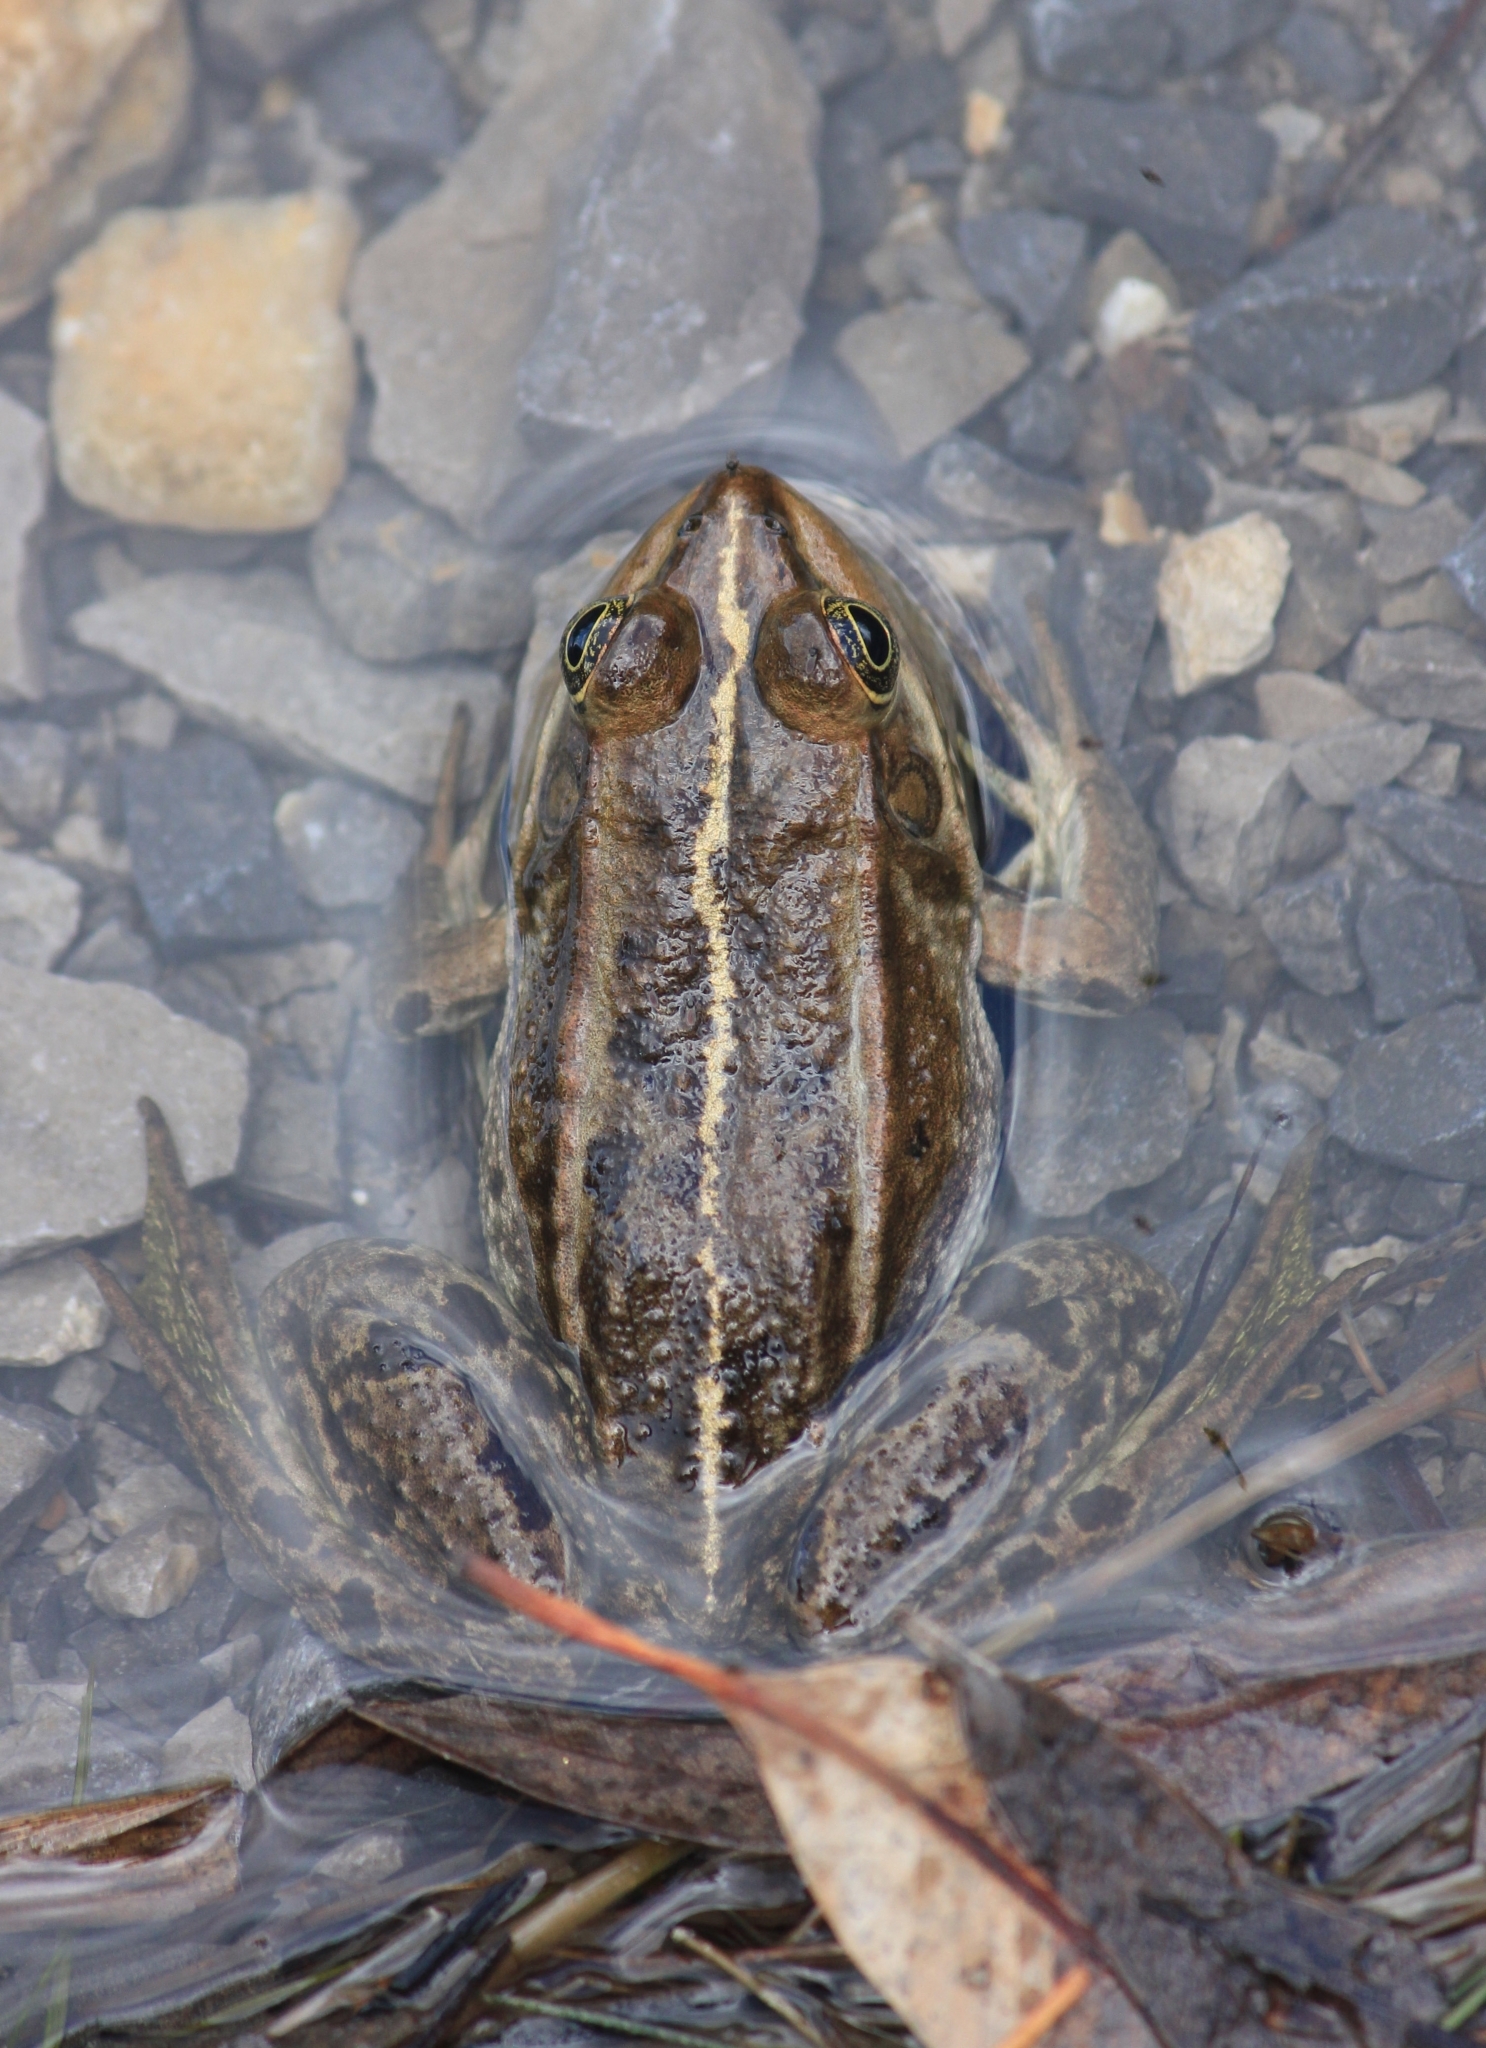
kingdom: Animalia
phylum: Chordata
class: Amphibia
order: Anura
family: Ranidae
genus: Pelophylax
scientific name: Pelophylax epeiroticus
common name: Epirus water frog
